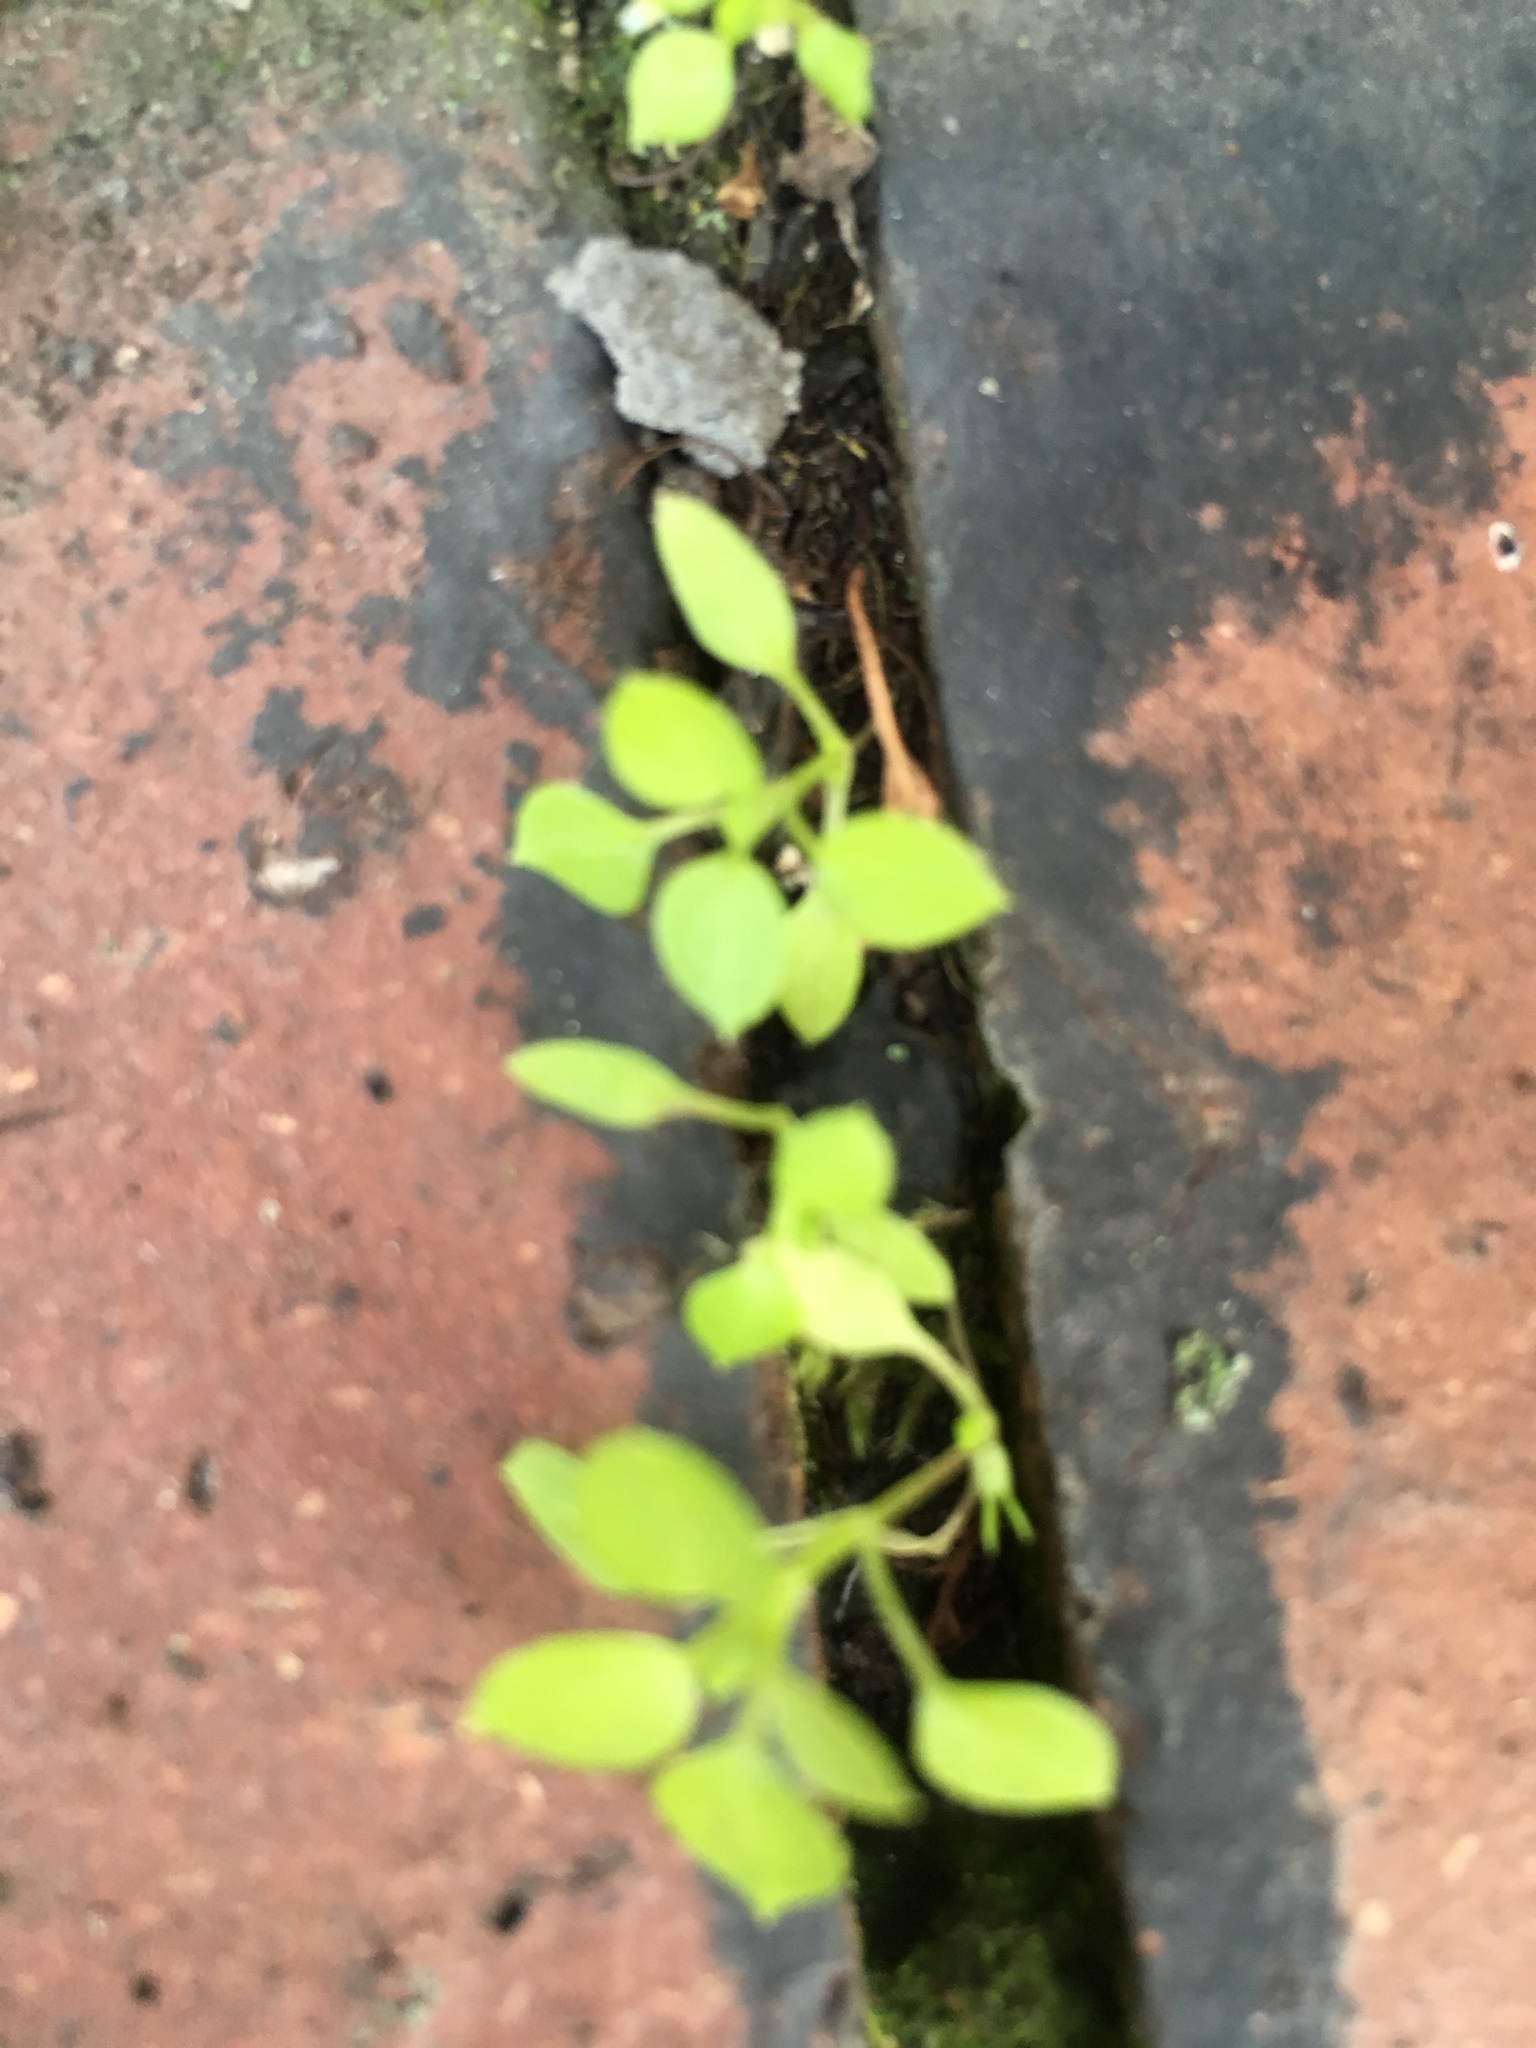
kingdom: Plantae
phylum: Tracheophyta
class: Magnoliopsida
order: Caryophyllales
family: Caryophyllaceae
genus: Stellaria
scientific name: Stellaria media
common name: Common chickweed
